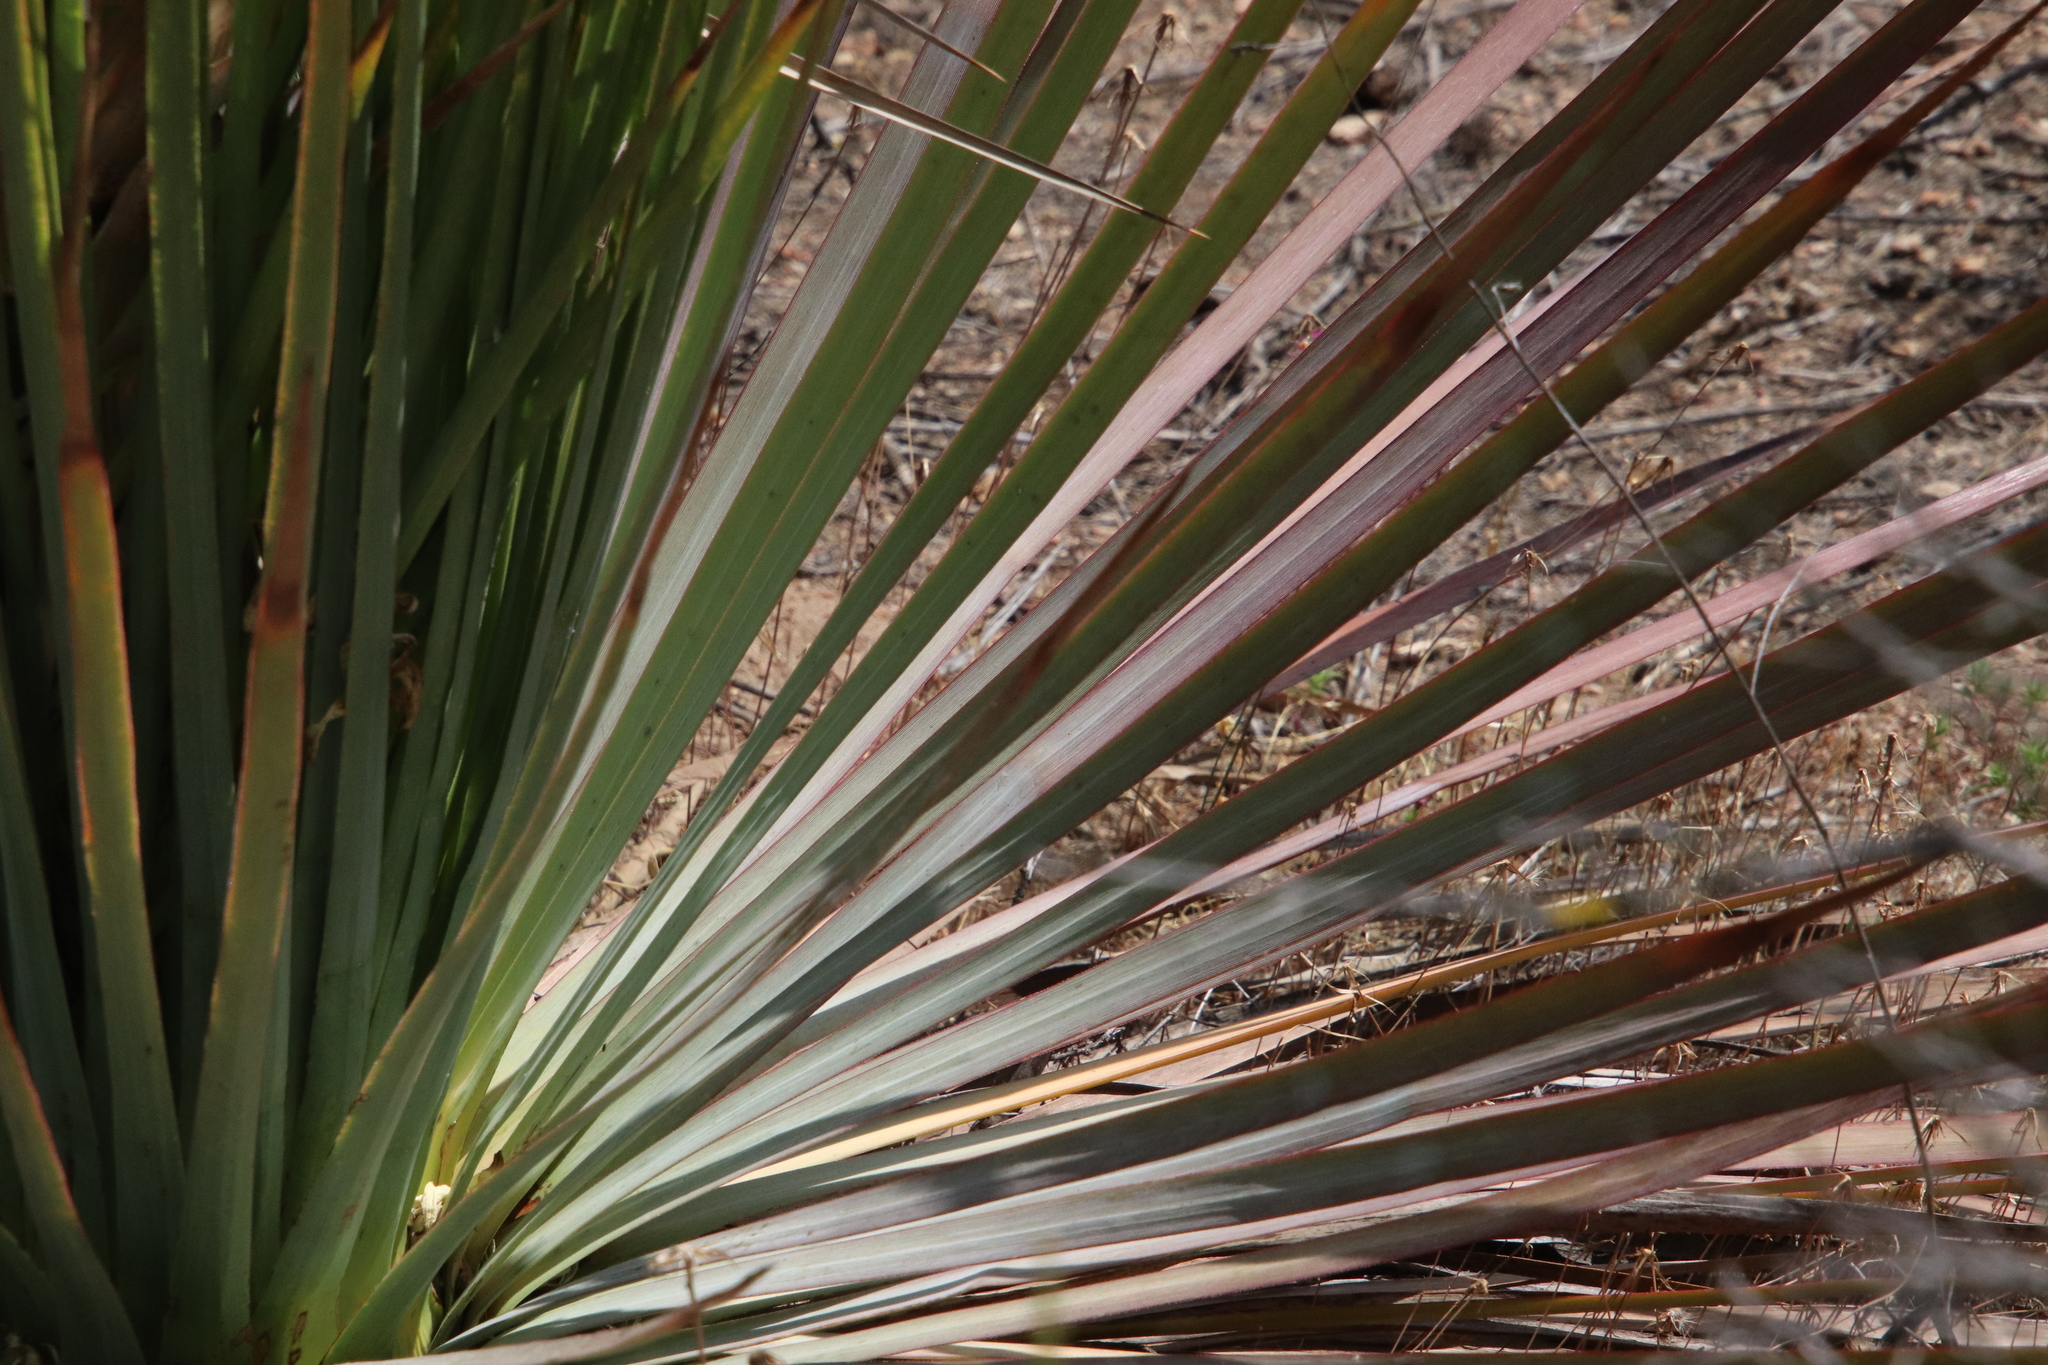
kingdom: Plantae
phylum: Tracheophyta
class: Liliopsida
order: Asparagales
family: Asparagaceae
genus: Hesperoyucca
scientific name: Hesperoyucca whipplei
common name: Our lord's-candle
